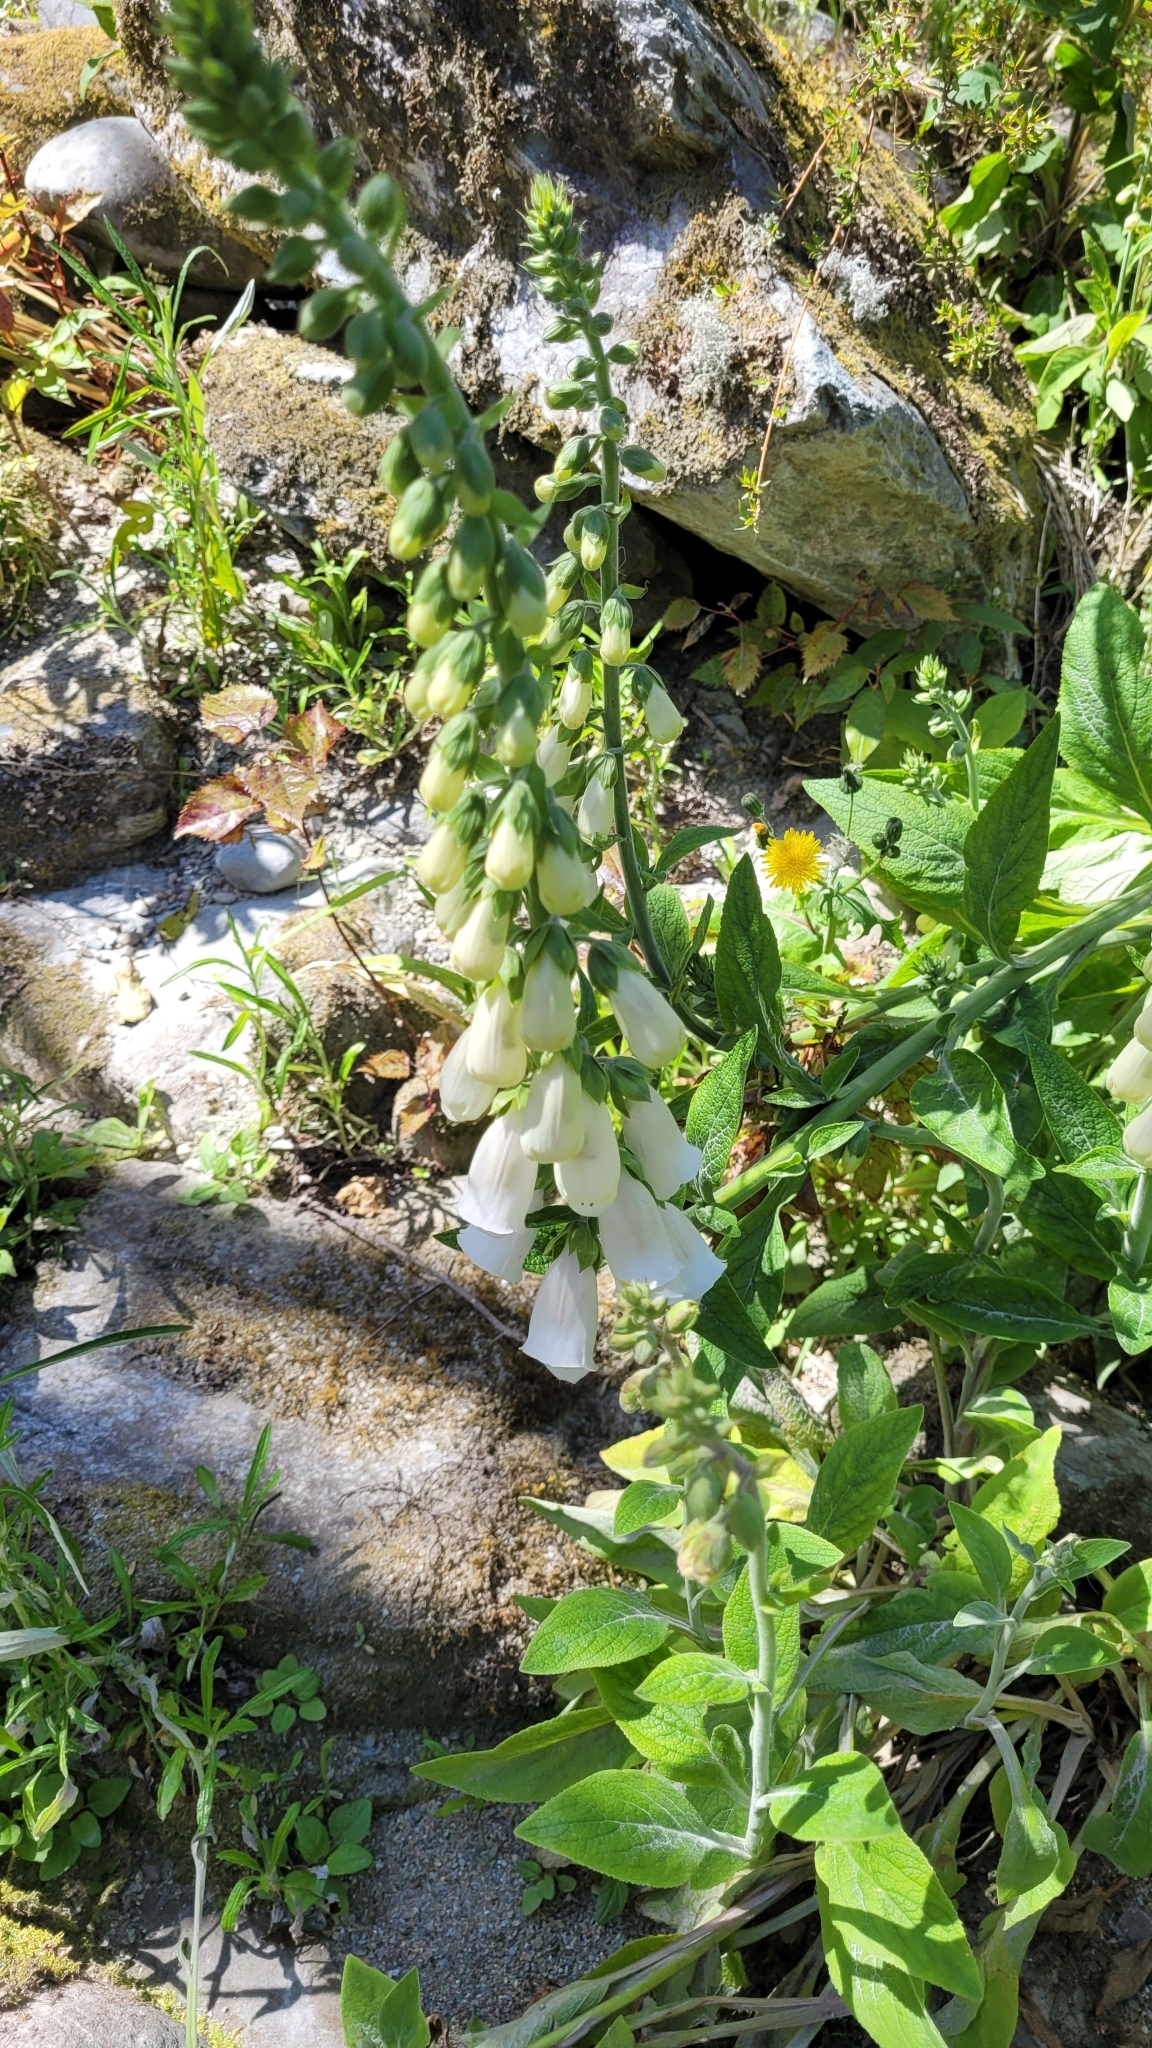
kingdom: Plantae
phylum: Tracheophyta
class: Magnoliopsida
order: Lamiales
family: Plantaginaceae
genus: Digitalis
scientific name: Digitalis purpurea
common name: Foxglove
